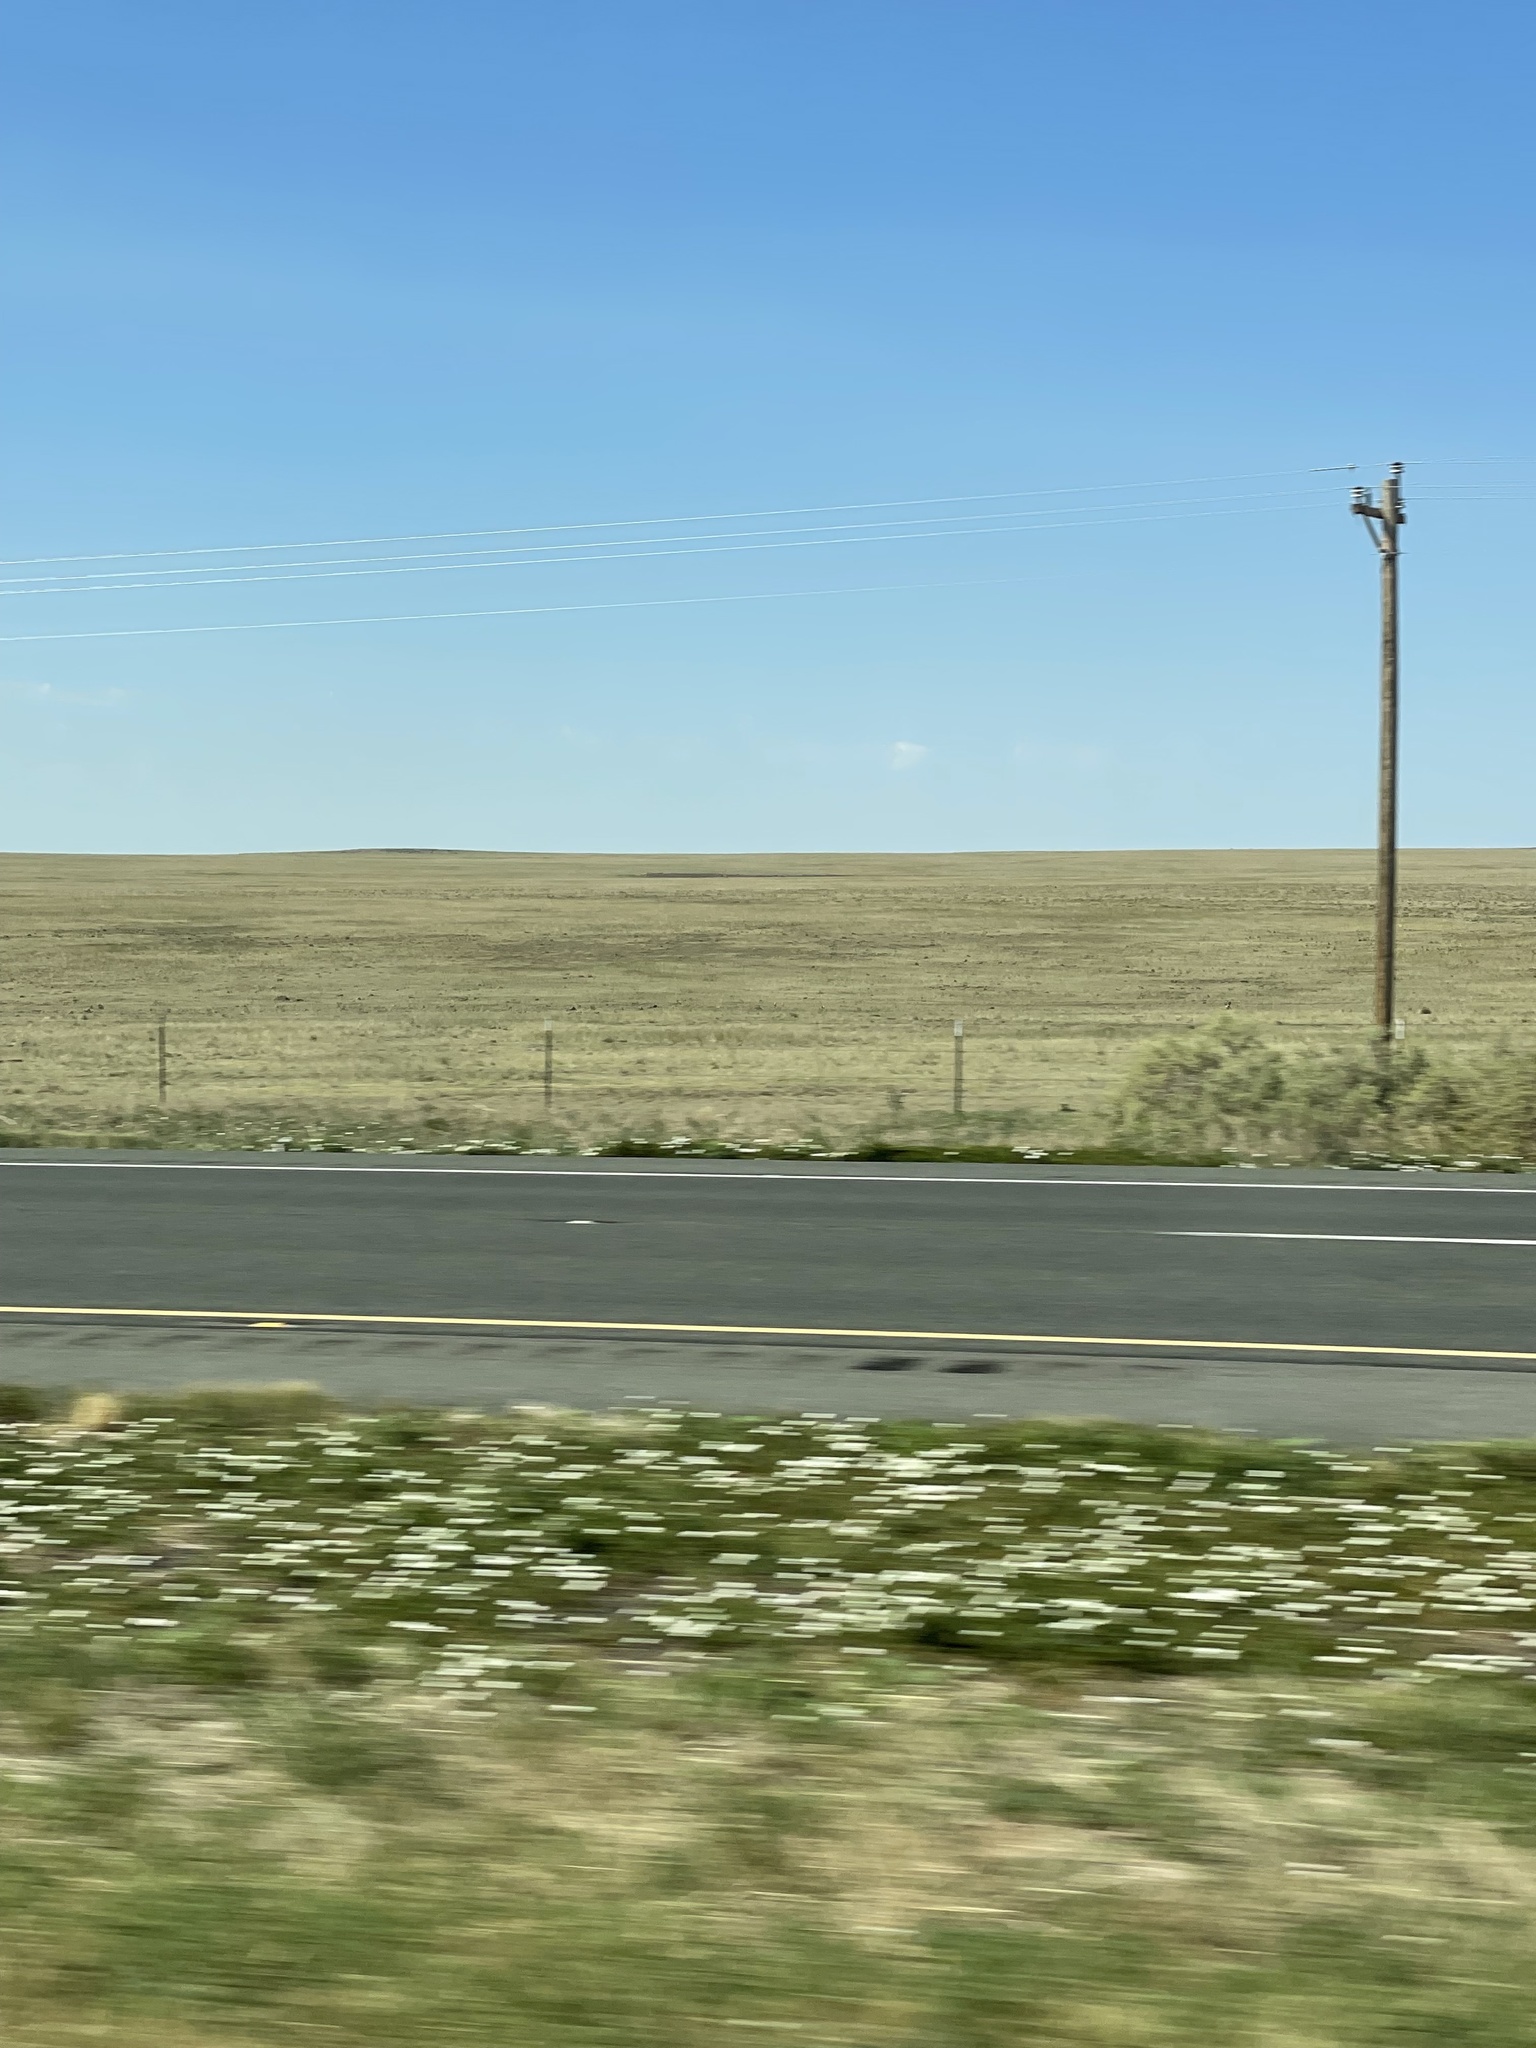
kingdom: Animalia
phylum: Chordata
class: Mammalia
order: Artiodactyla
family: Antilocapridae
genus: Antilocapra
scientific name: Antilocapra americana
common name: Pronghorn
